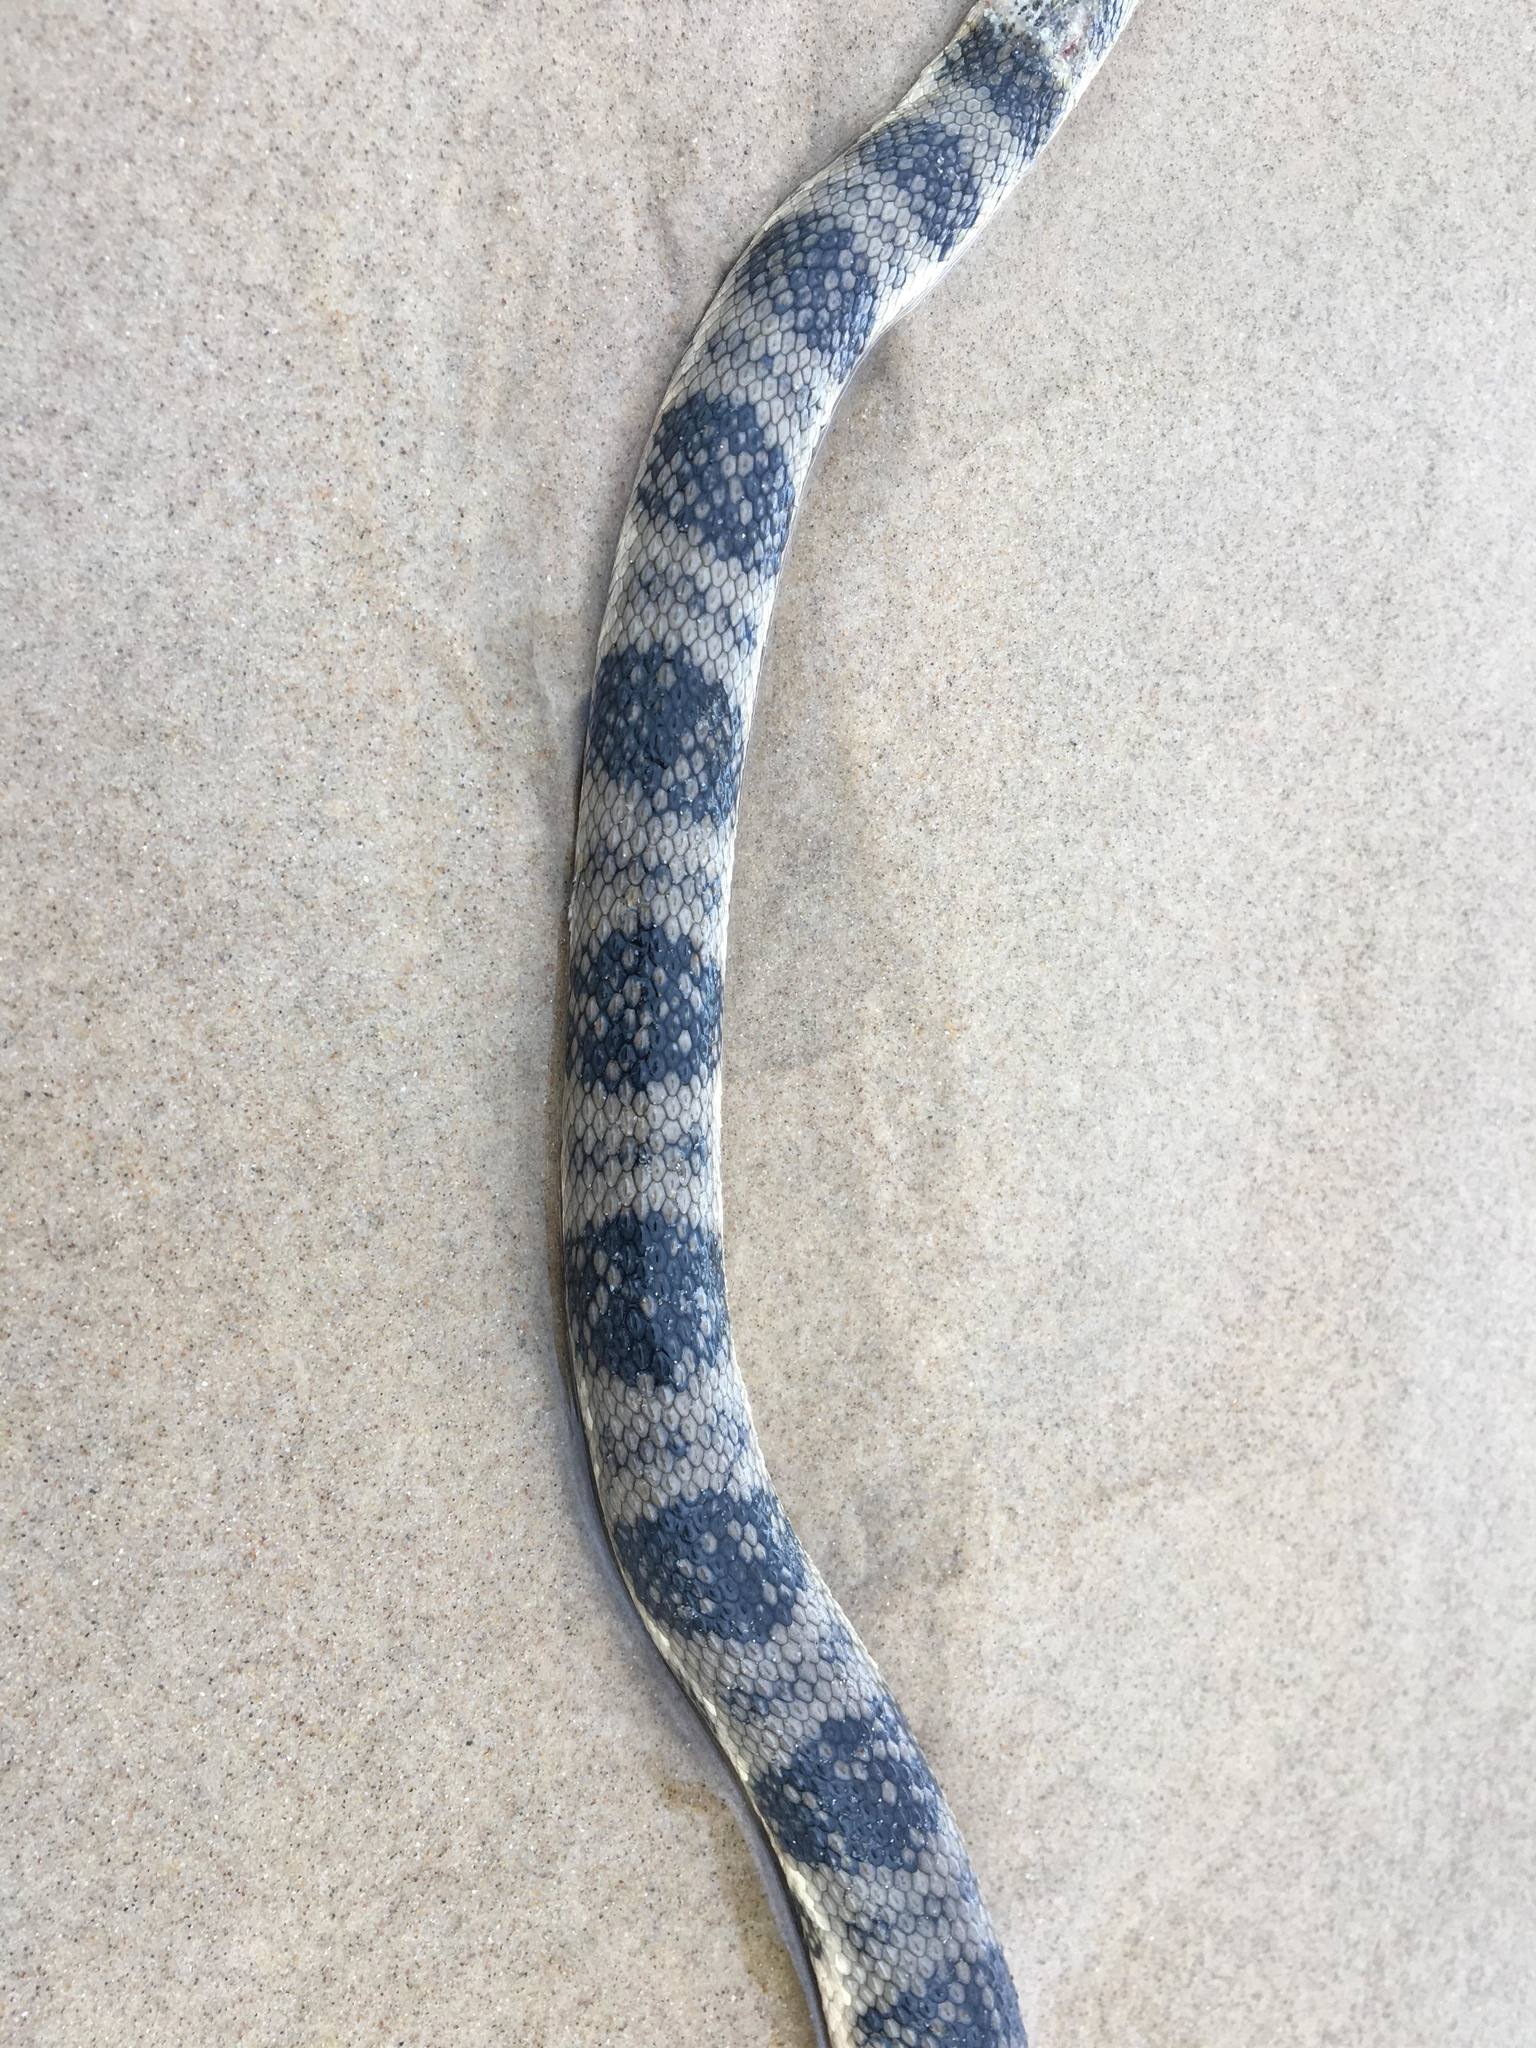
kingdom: Animalia
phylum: Chordata
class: Squamata
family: Elapidae
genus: Hydrophis
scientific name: Hydrophis major
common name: Greater sea snake
